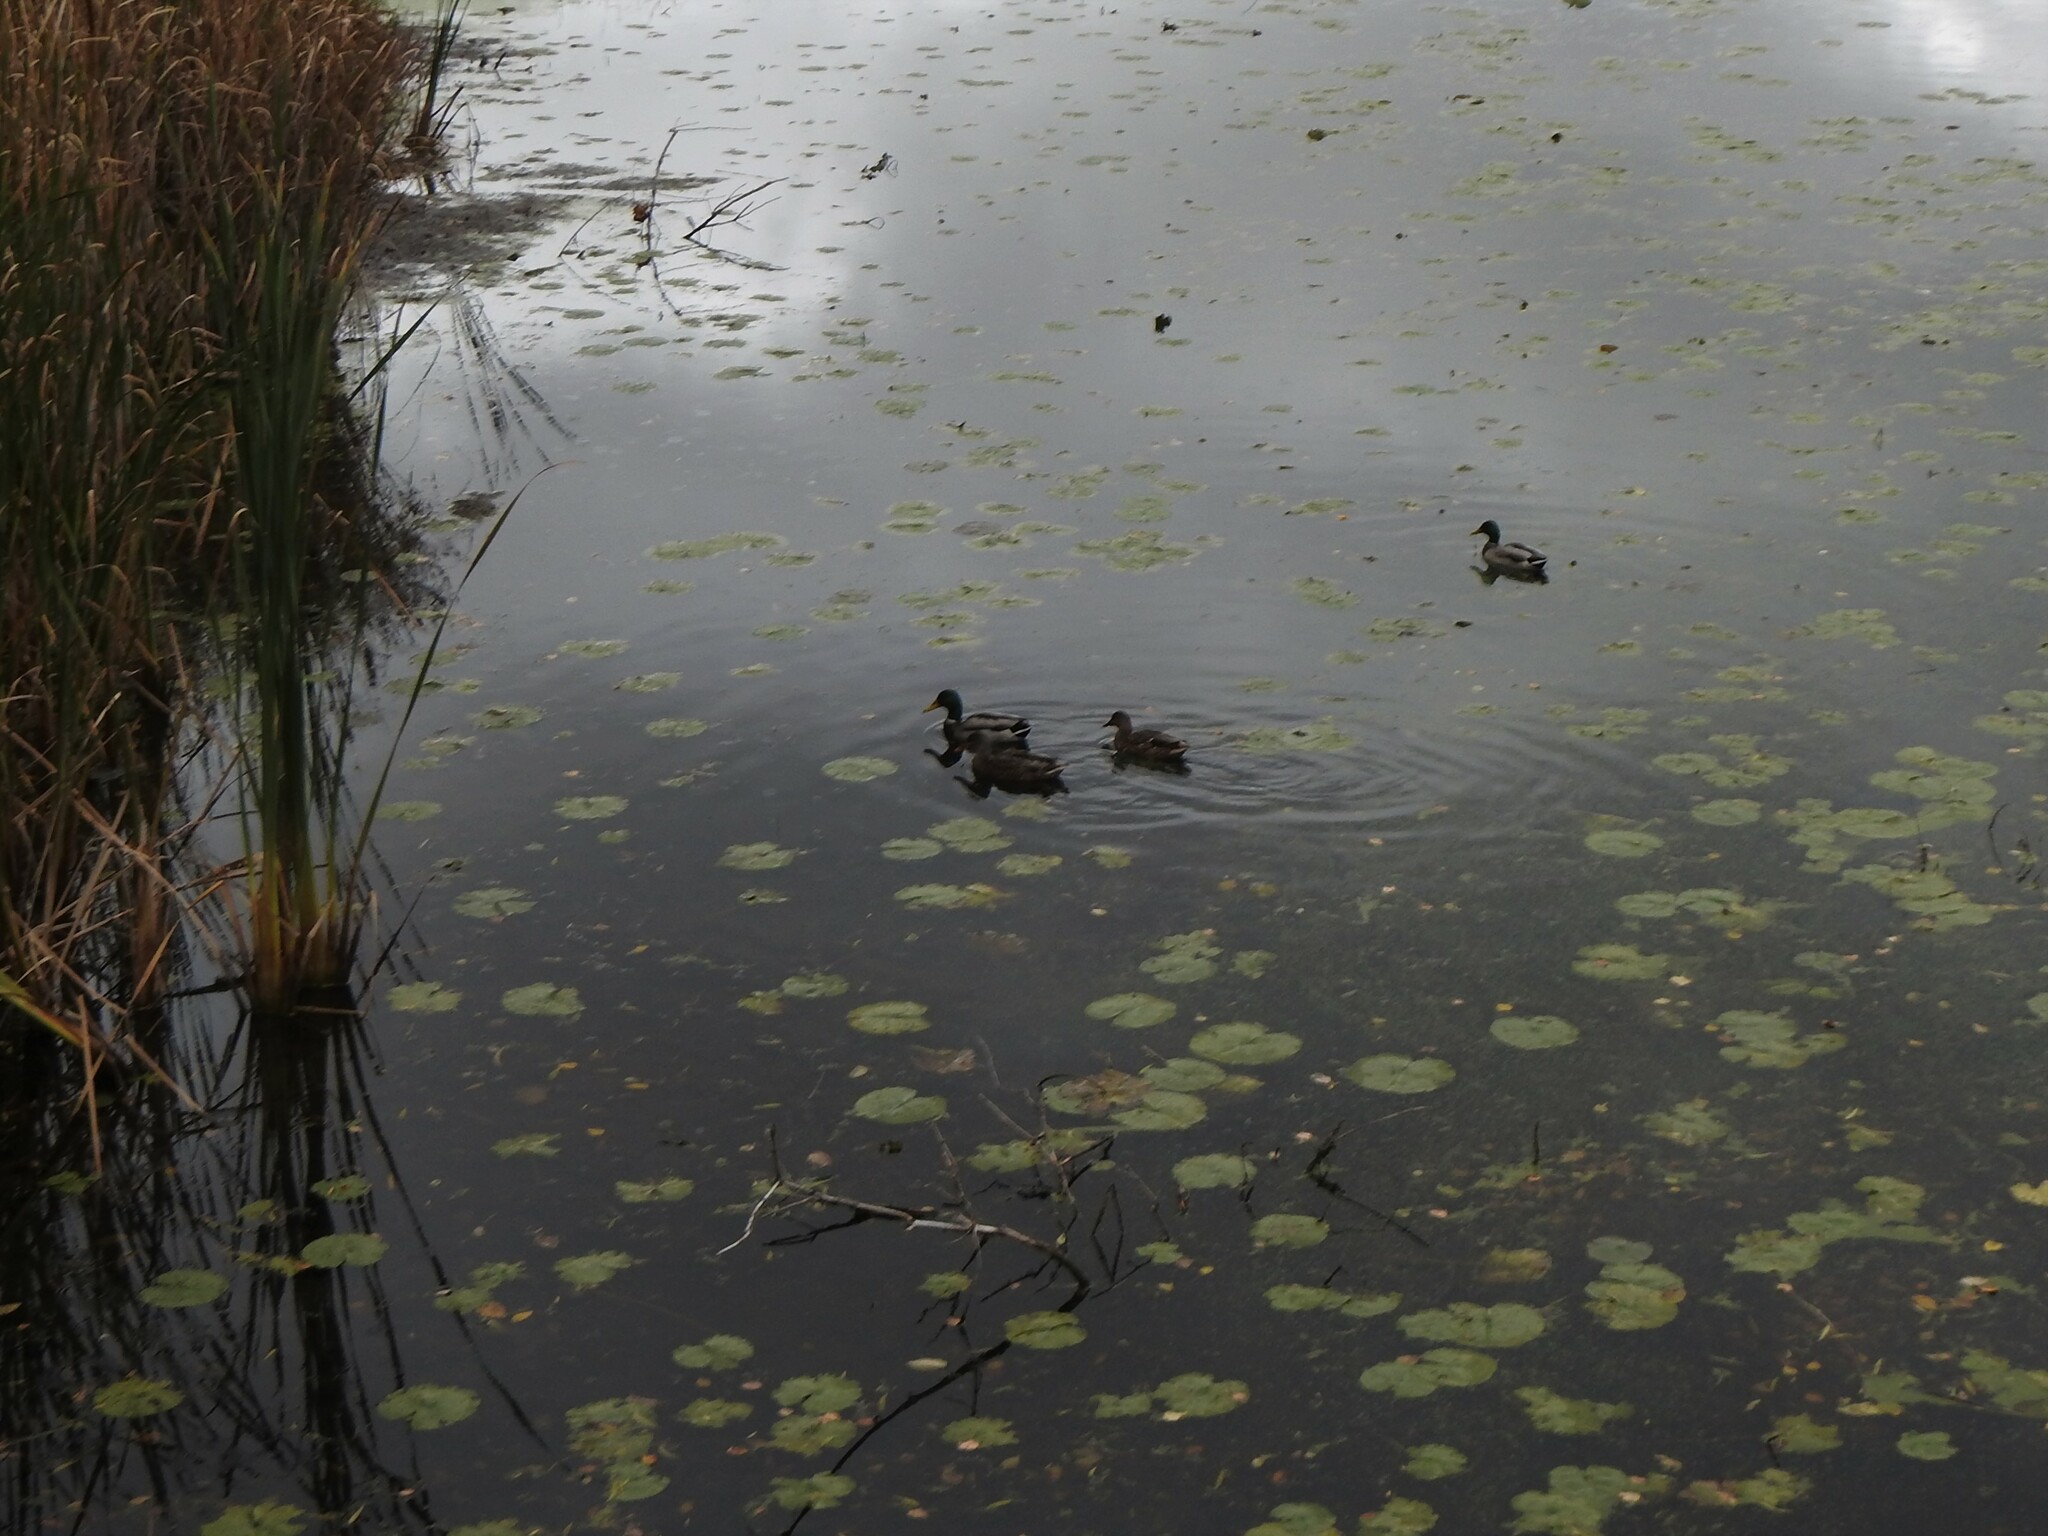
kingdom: Animalia
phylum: Chordata
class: Aves
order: Anseriformes
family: Anatidae
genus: Anas
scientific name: Anas platyrhynchos
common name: Mallard
